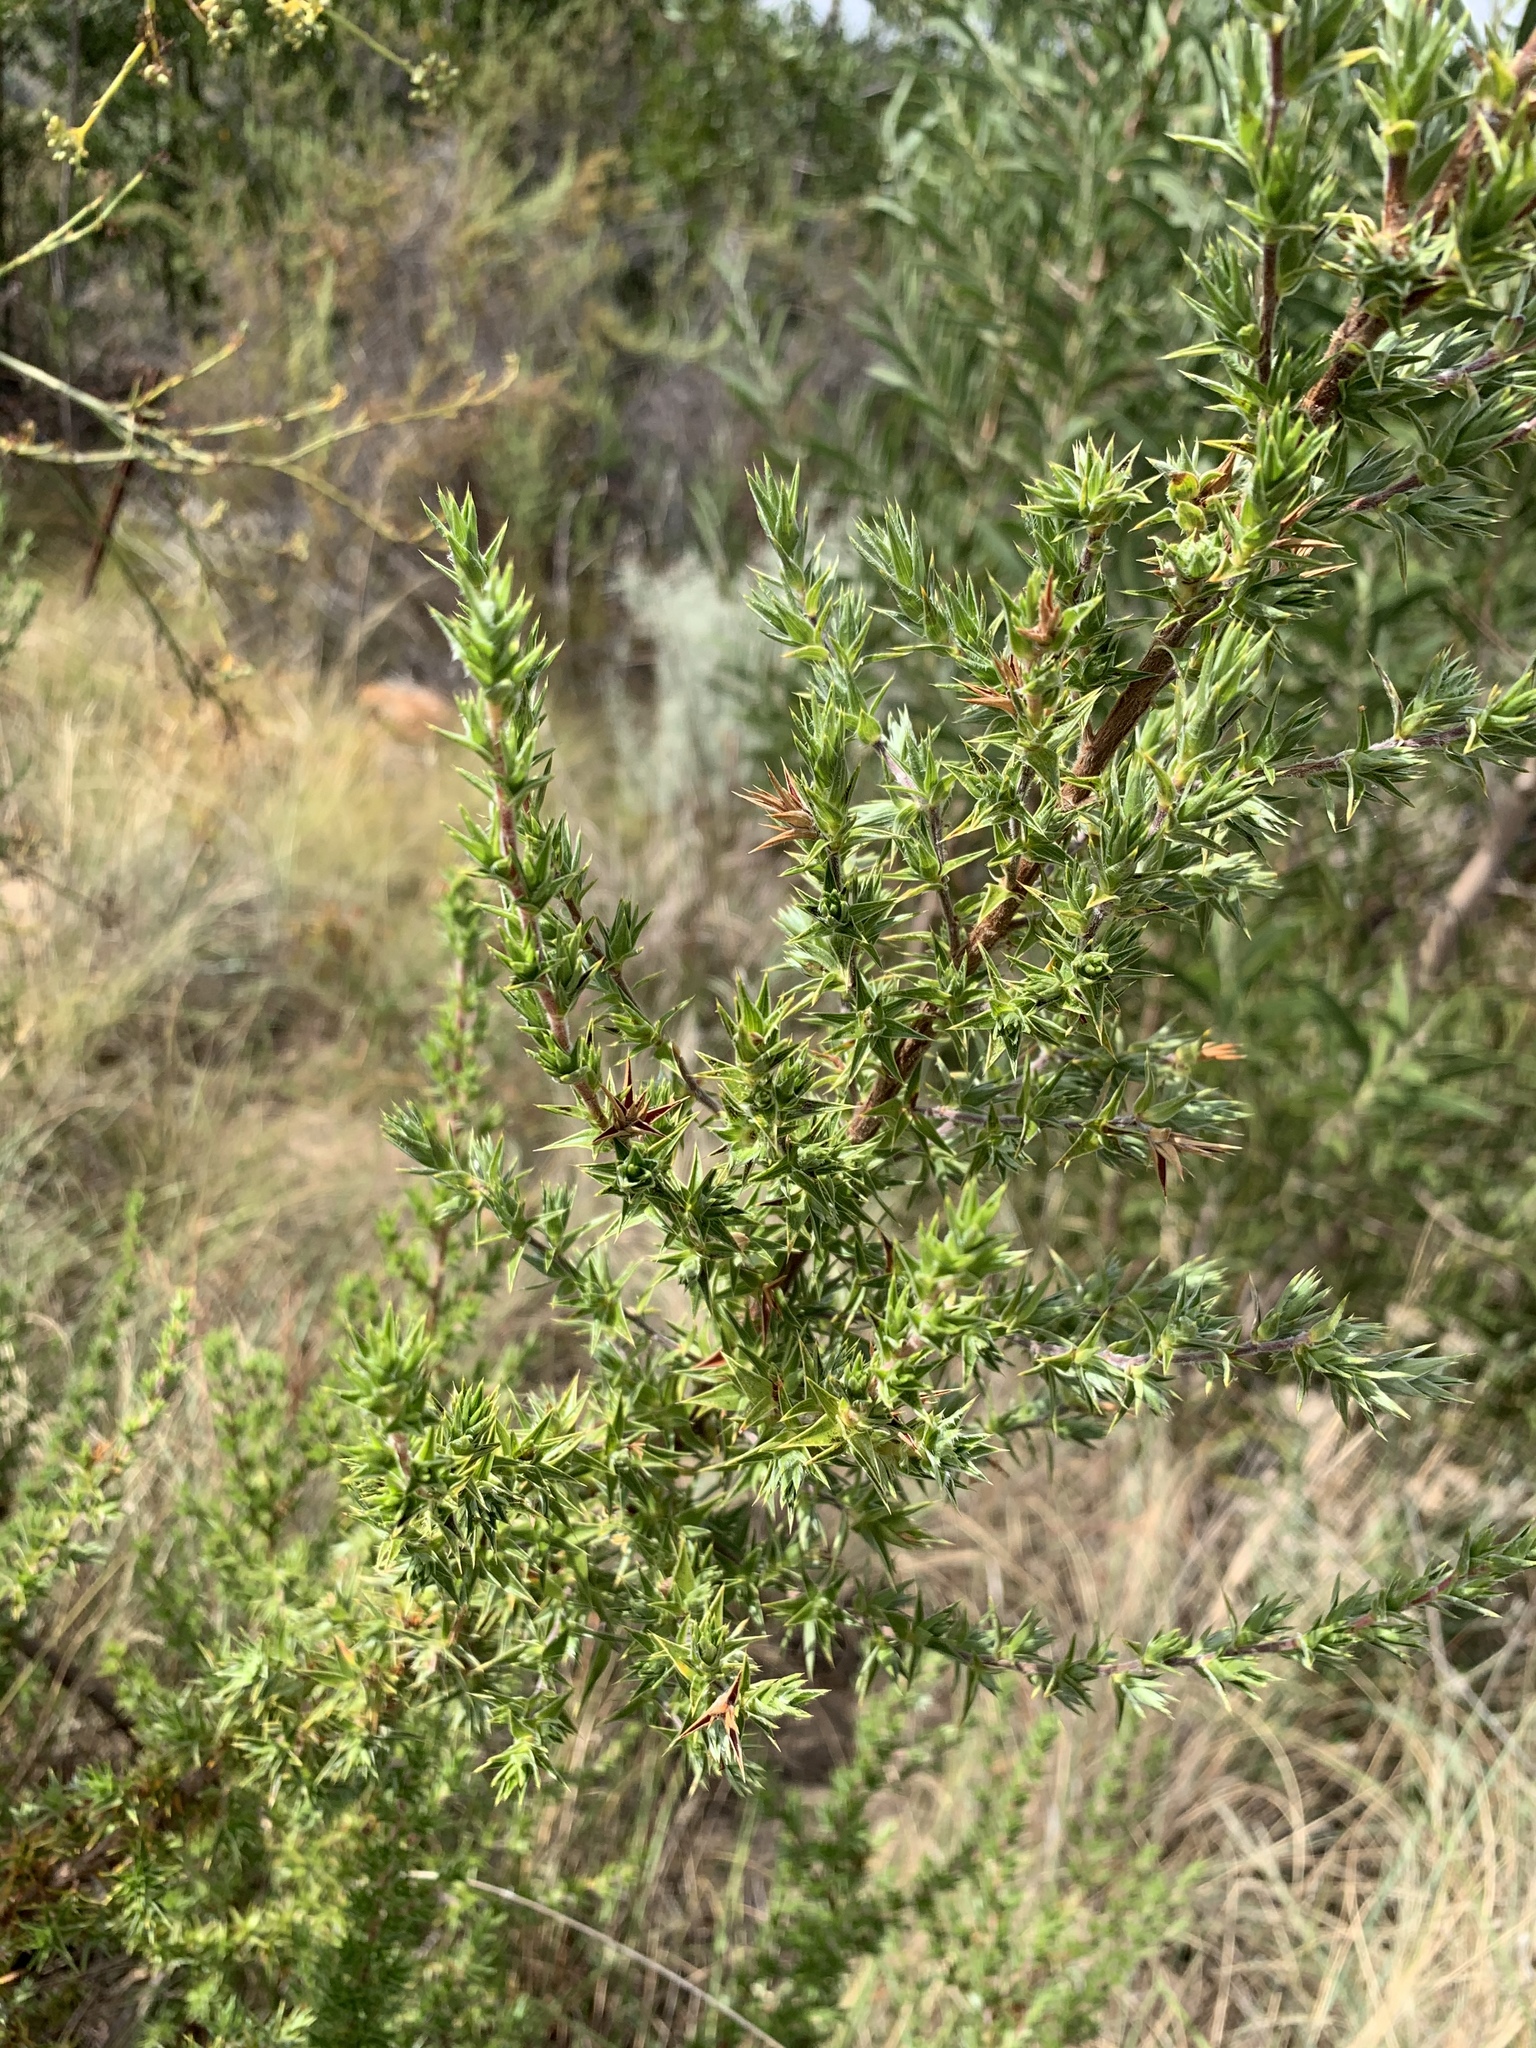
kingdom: Plantae
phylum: Tracheophyta
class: Magnoliopsida
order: Rosales
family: Rosaceae
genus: Cliffortia
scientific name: Cliffortia ruscifolia
